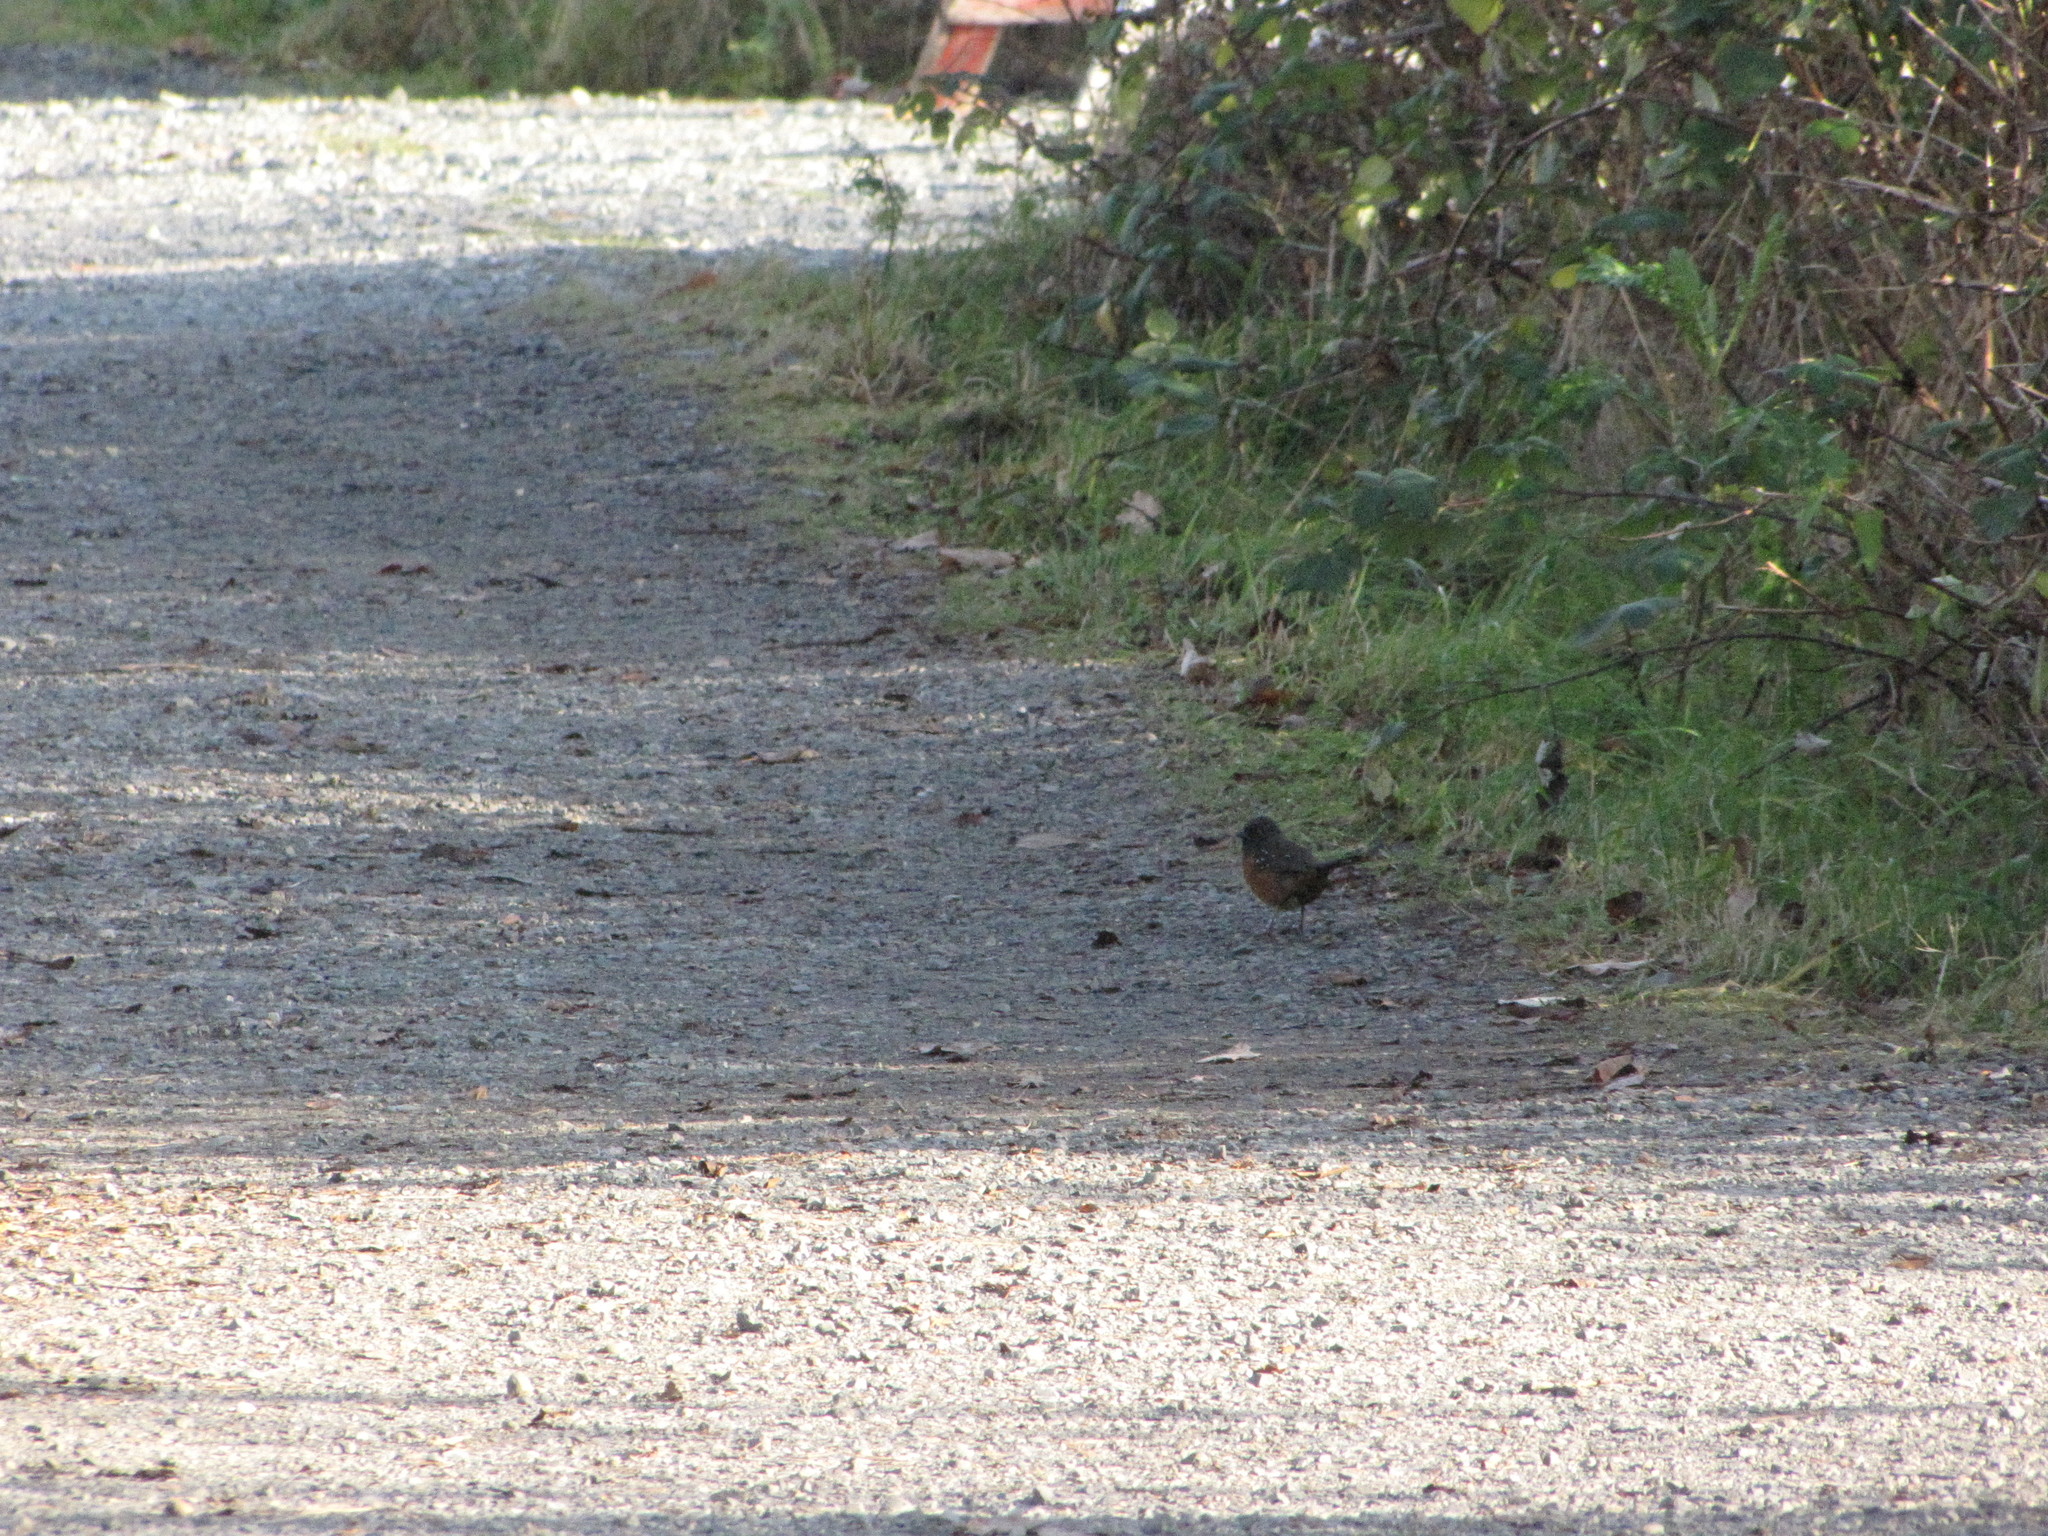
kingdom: Animalia
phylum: Chordata
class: Aves
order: Passeriformes
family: Passerellidae
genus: Pipilo
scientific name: Pipilo maculatus
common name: Spotted towhee
